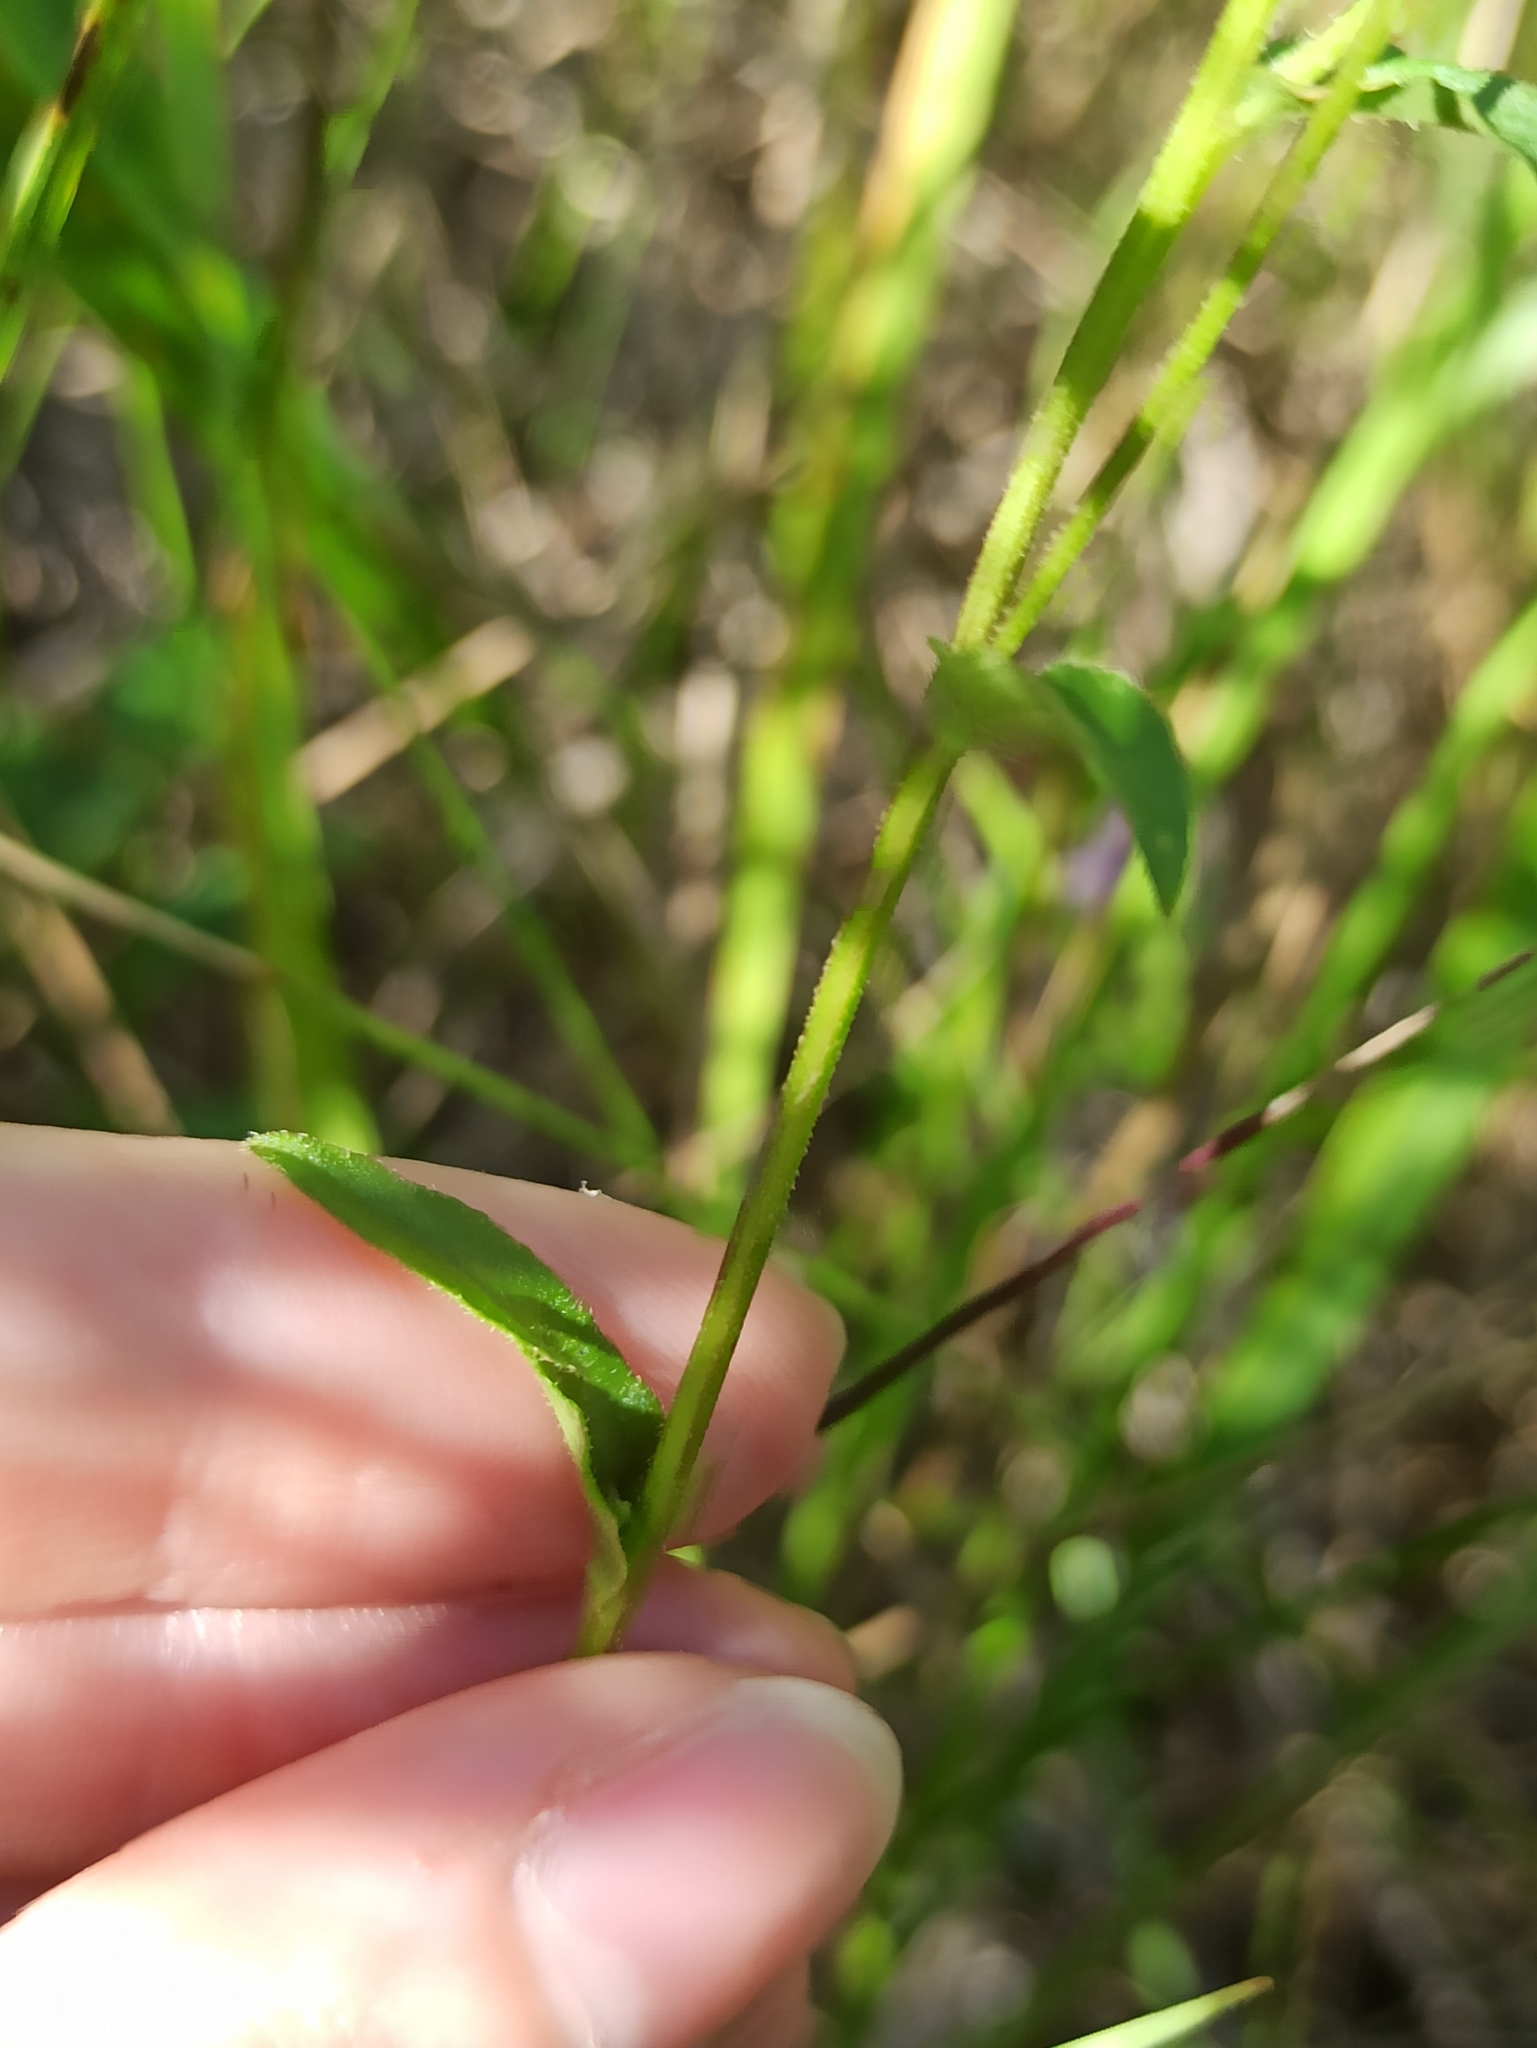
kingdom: Plantae
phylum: Tracheophyta
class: Magnoliopsida
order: Asterales
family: Campanulaceae
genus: Campanula
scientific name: Campanula sibirica
